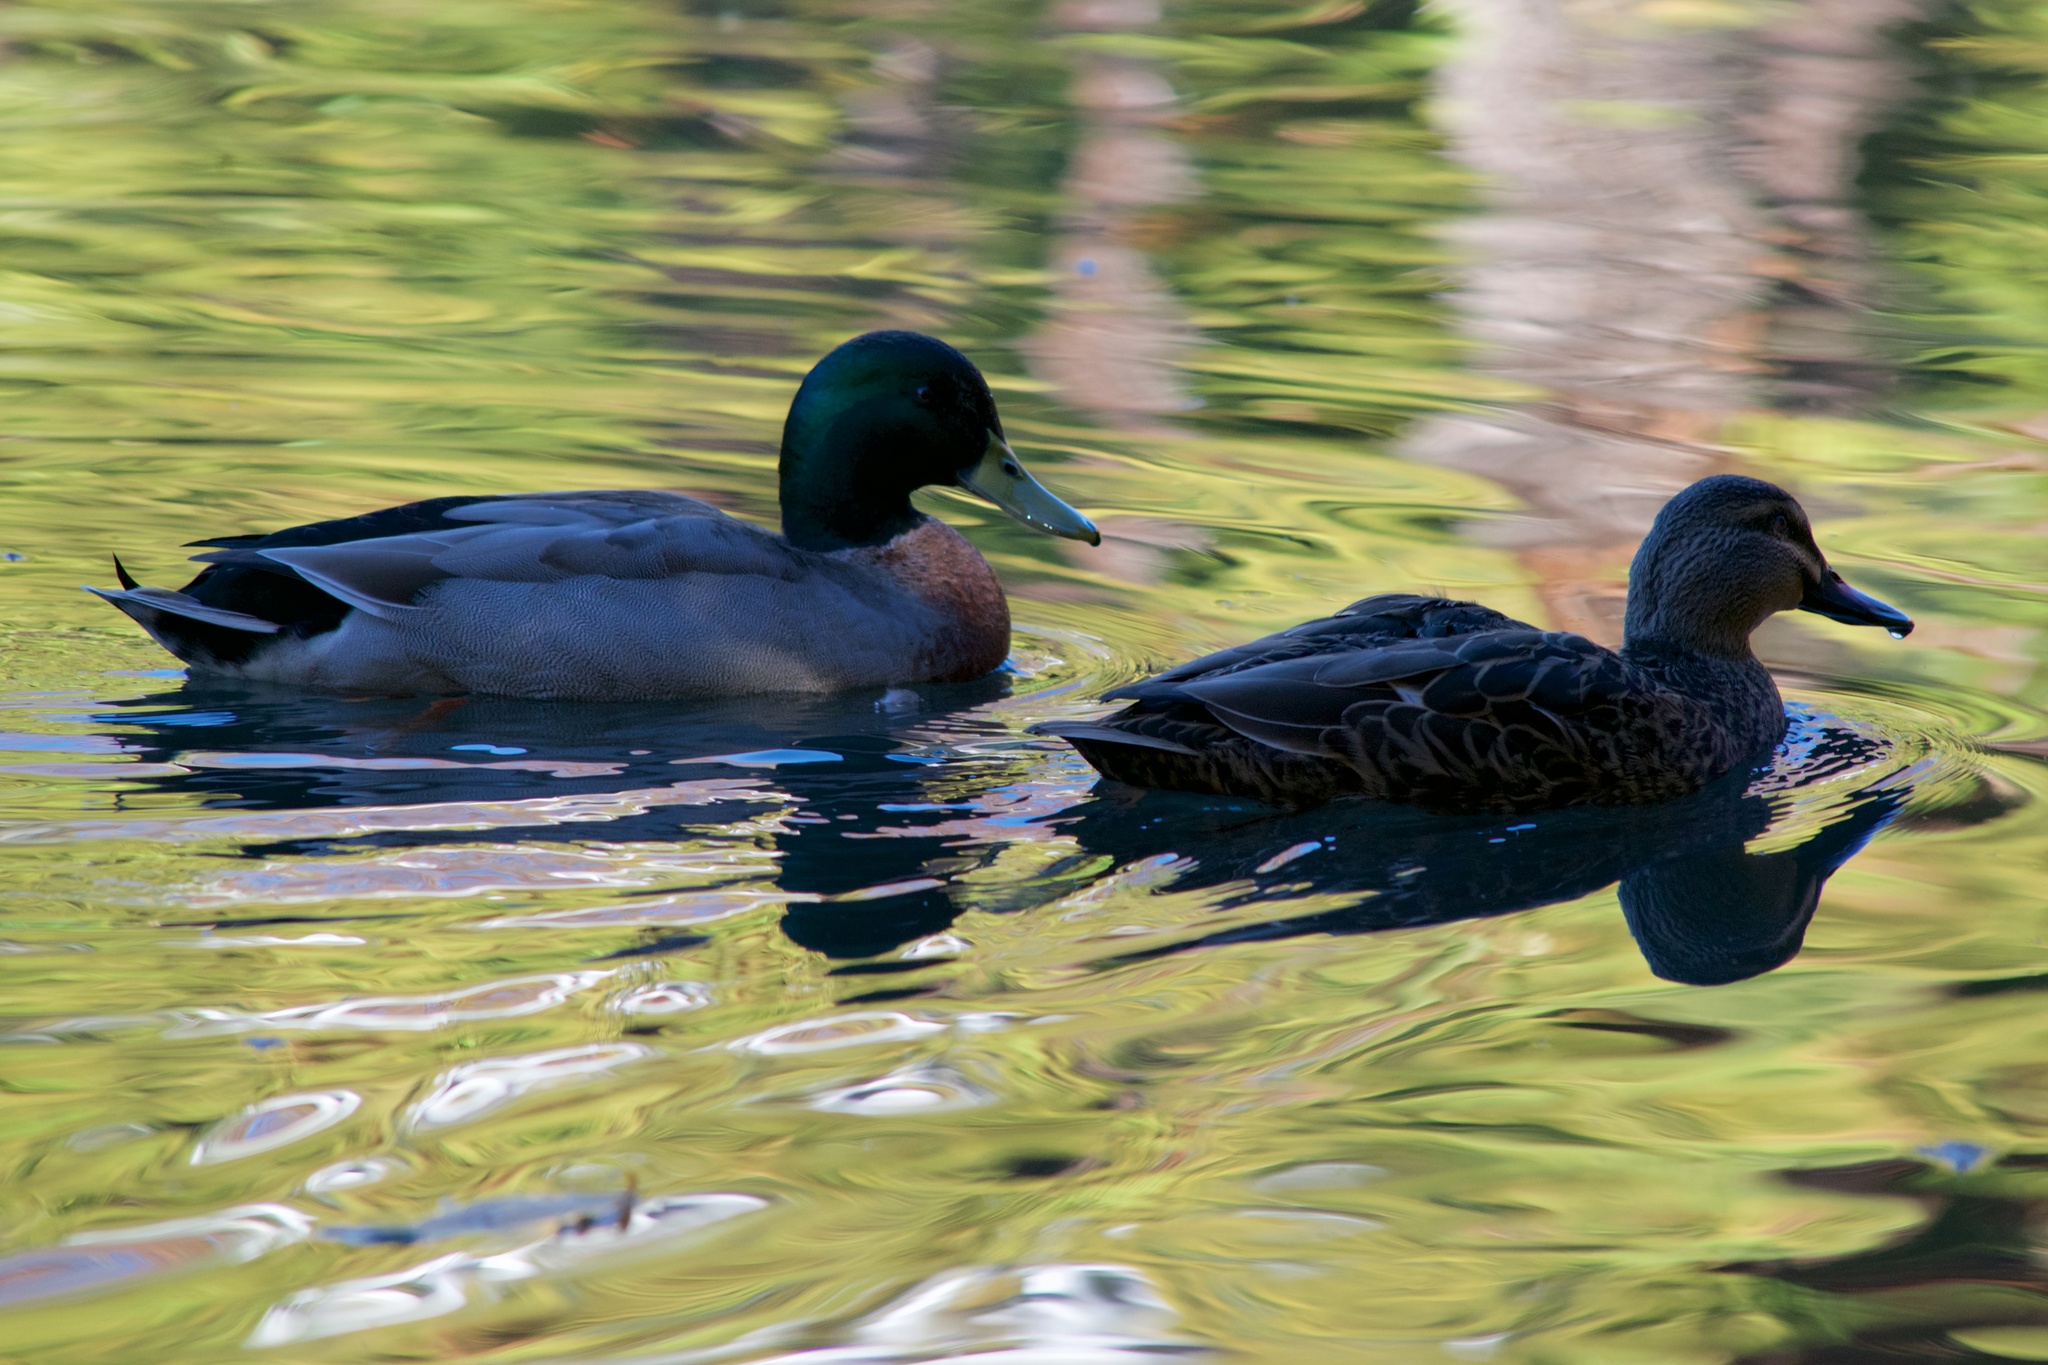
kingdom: Animalia
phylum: Chordata
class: Aves
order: Anseriformes
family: Anatidae
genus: Anas
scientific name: Anas platyrhynchos
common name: Mallard
